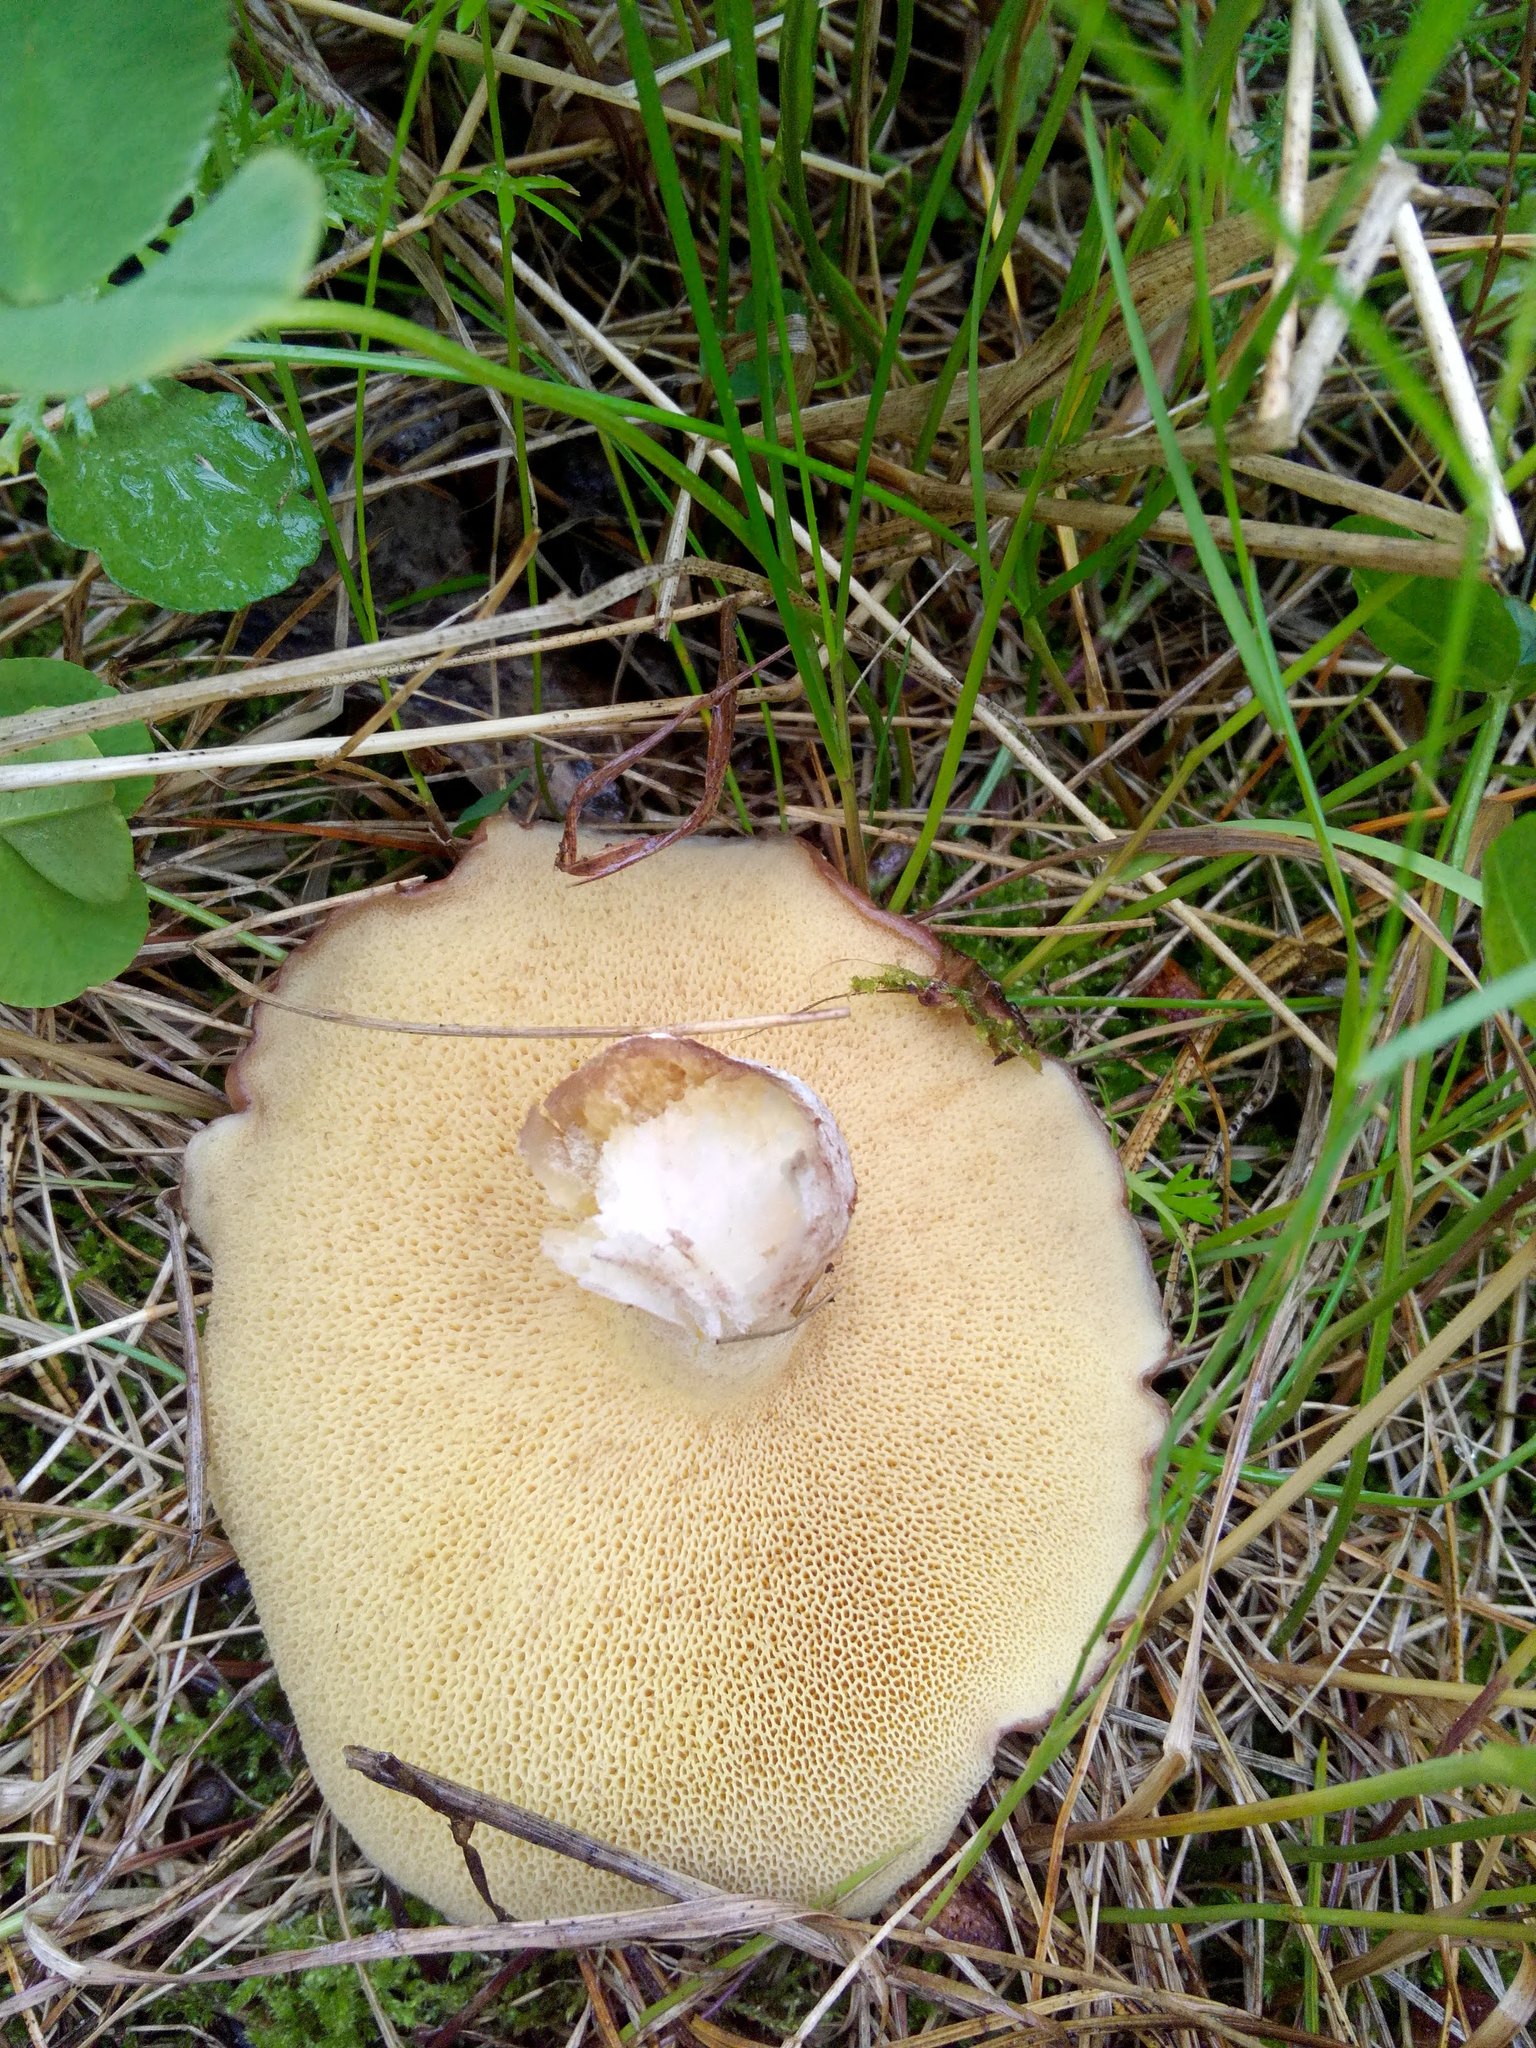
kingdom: Fungi
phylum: Basidiomycota
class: Agaricomycetes
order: Boletales
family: Suillaceae
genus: Suillus
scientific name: Suillus placidus
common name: Slippery white bolete
